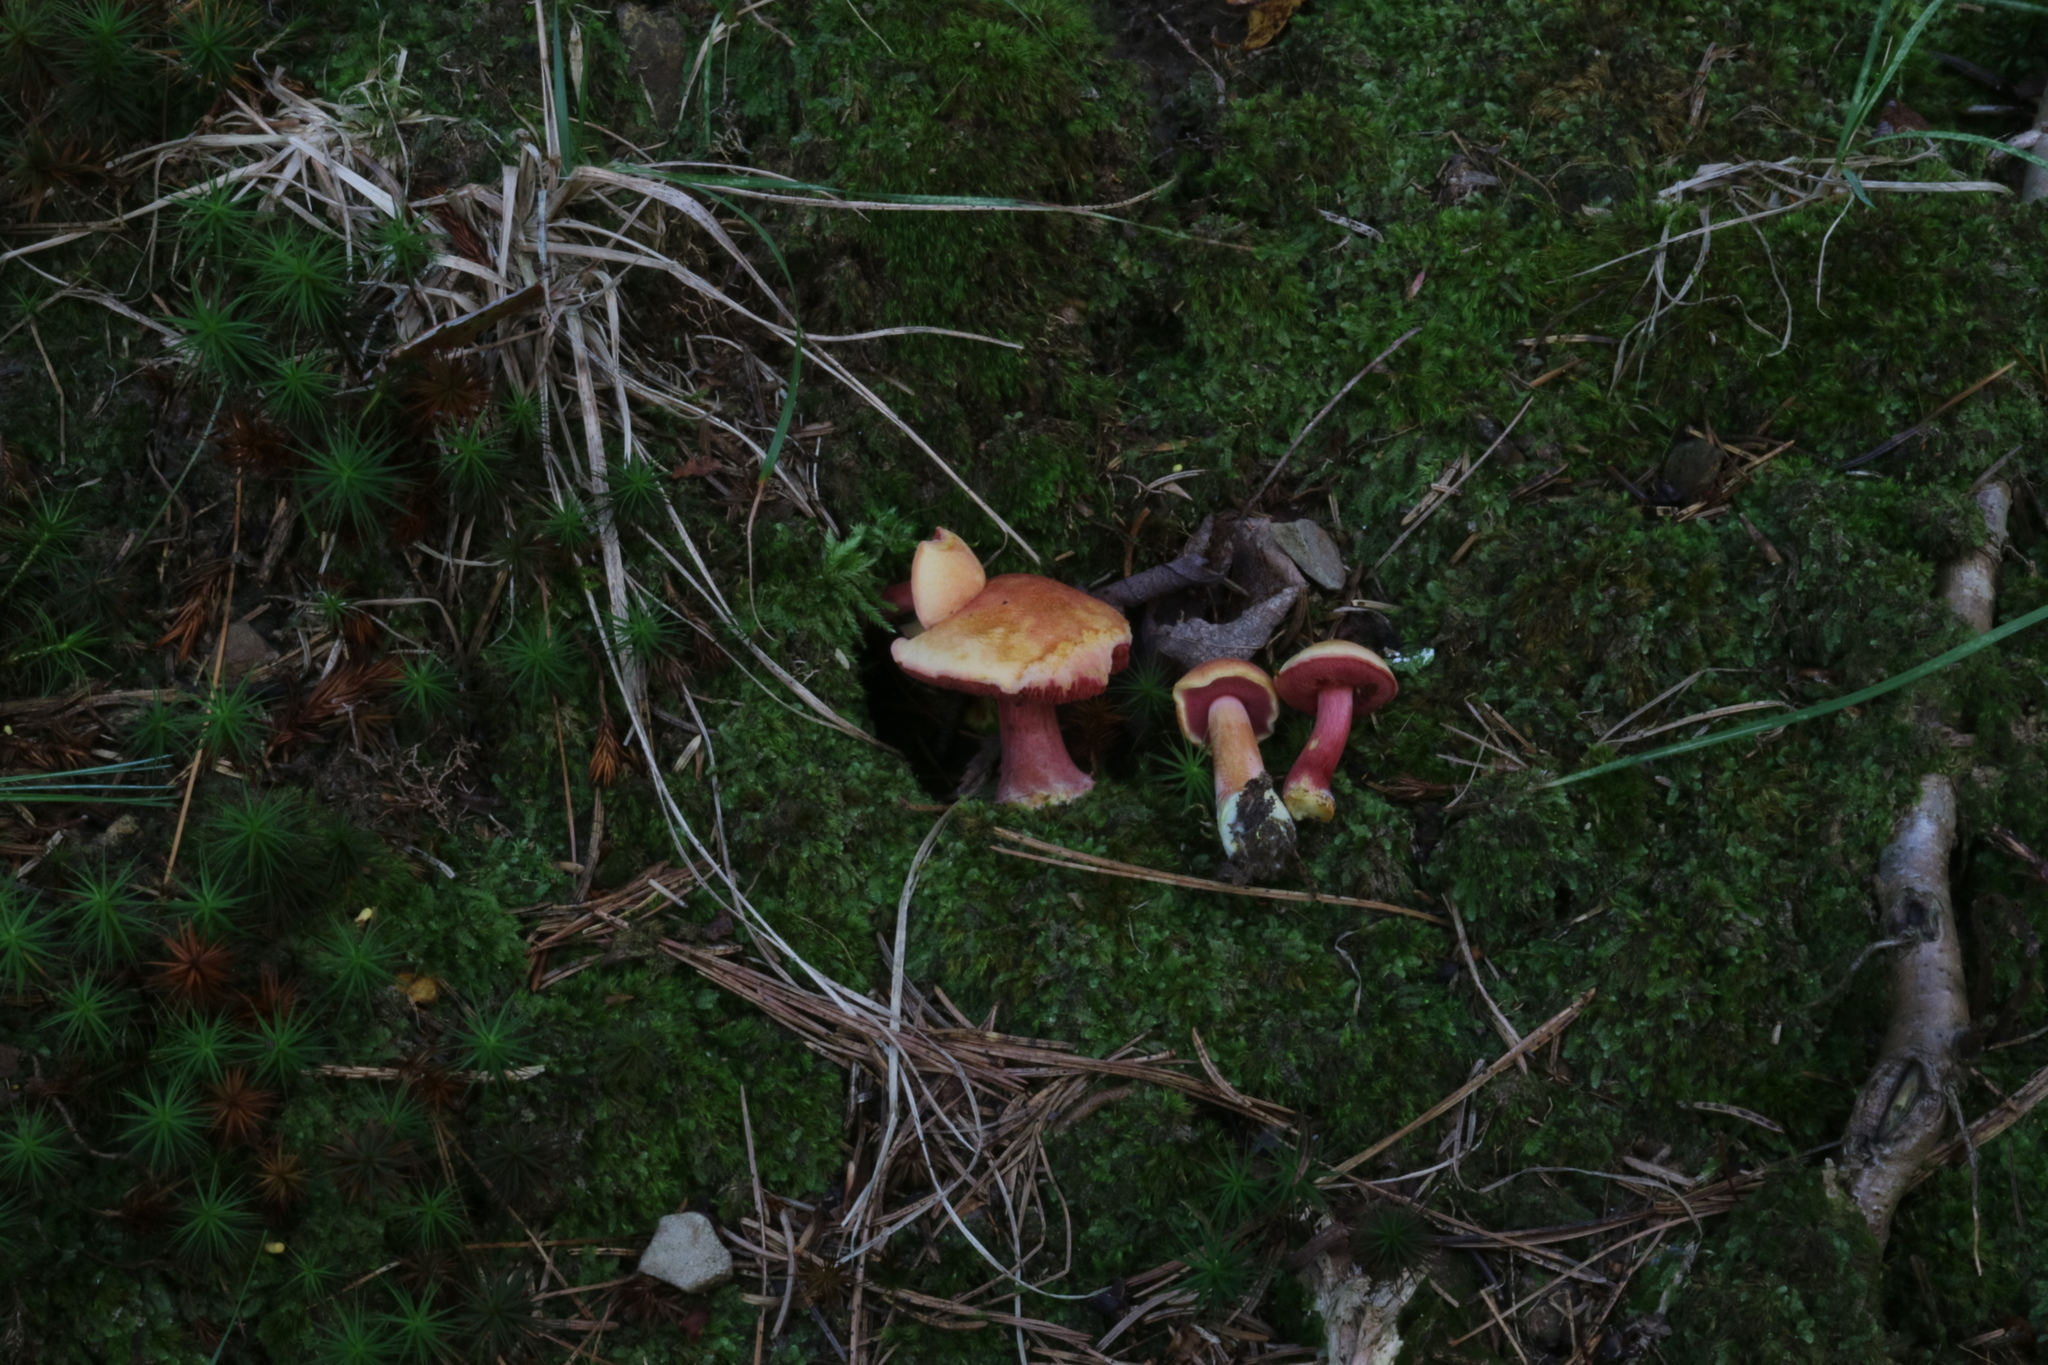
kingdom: Fungi
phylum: Basidiomycota
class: Agaricomycetes
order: Boletales
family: Boletaceae
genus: Chalciporus
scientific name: Chalciporus pseudorubinellus
